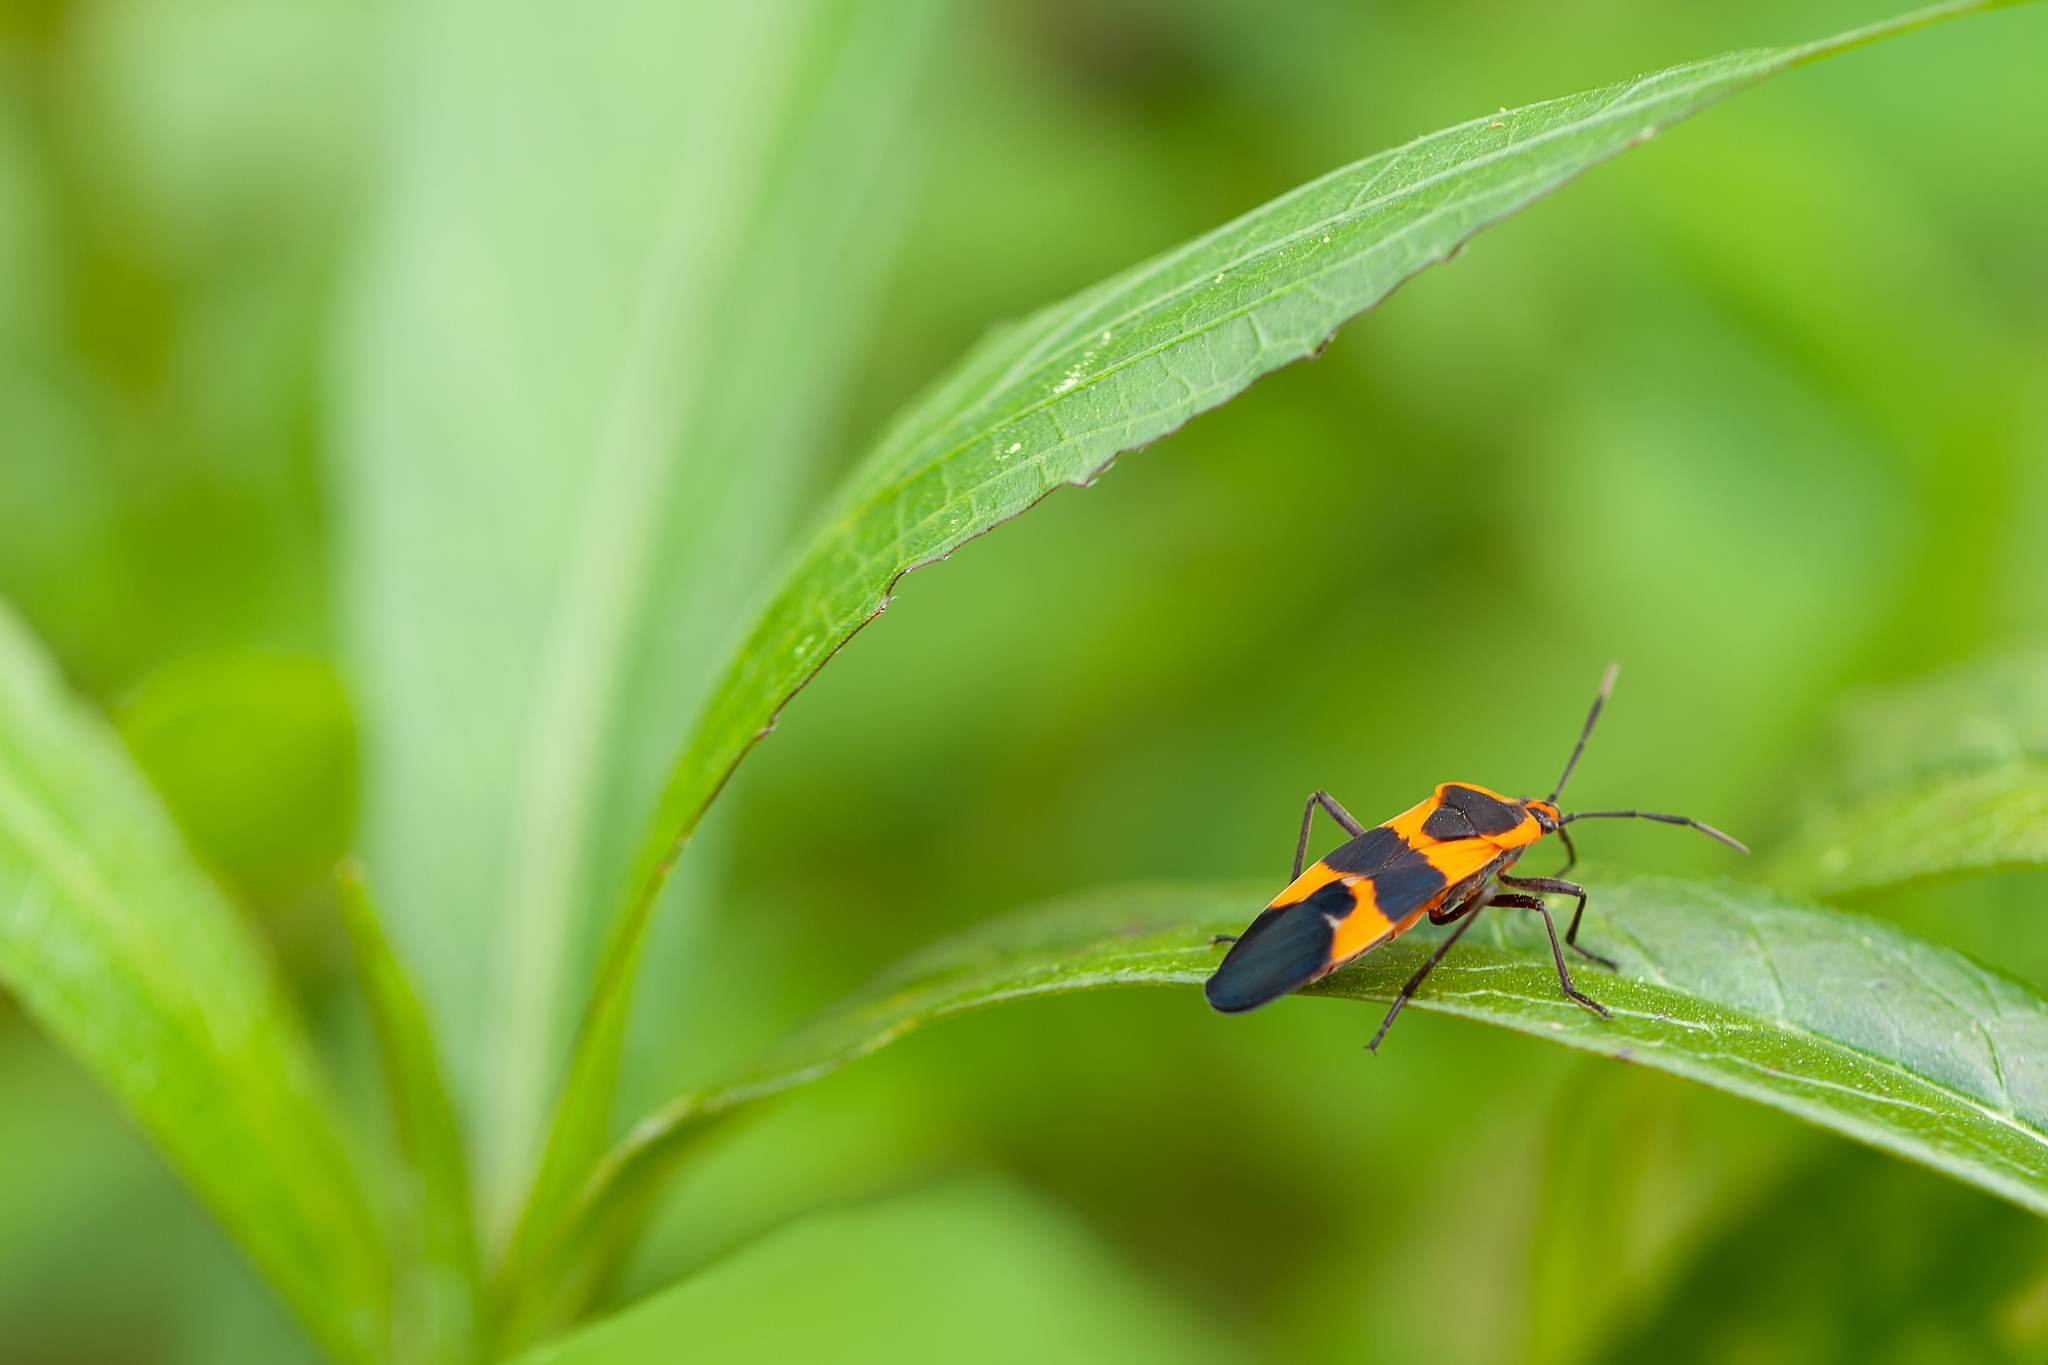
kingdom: Animalia
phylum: Arthropoda
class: Insecta
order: Hemiptera
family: Lygaeidae
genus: Oncopeltus
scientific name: Oncopeltus fasciatus
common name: Large milkweed bug
